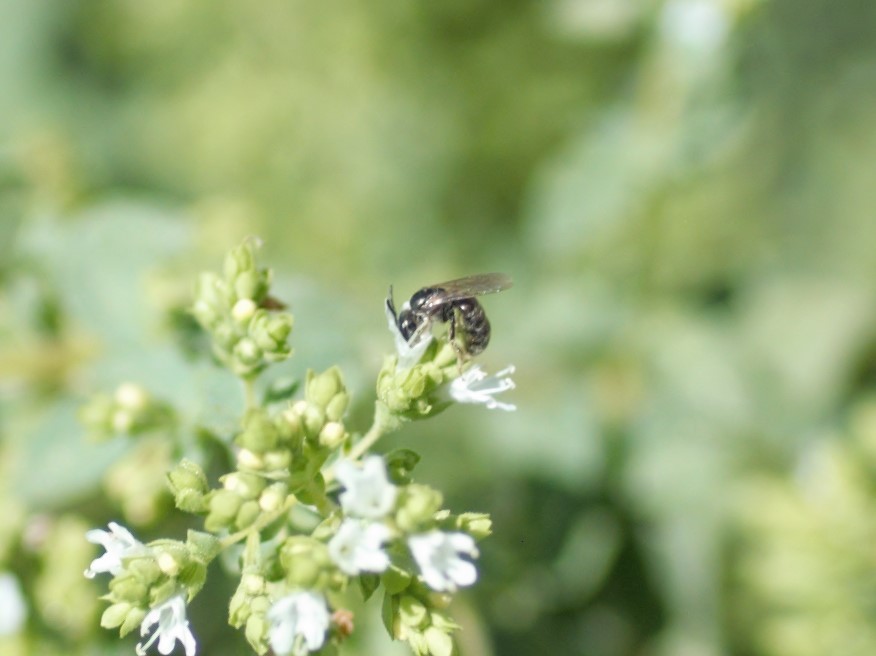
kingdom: Animalia
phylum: Arthropoda
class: Insecta
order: Hymenoptera
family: Halictidae
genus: Dialictus
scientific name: Dialictus
